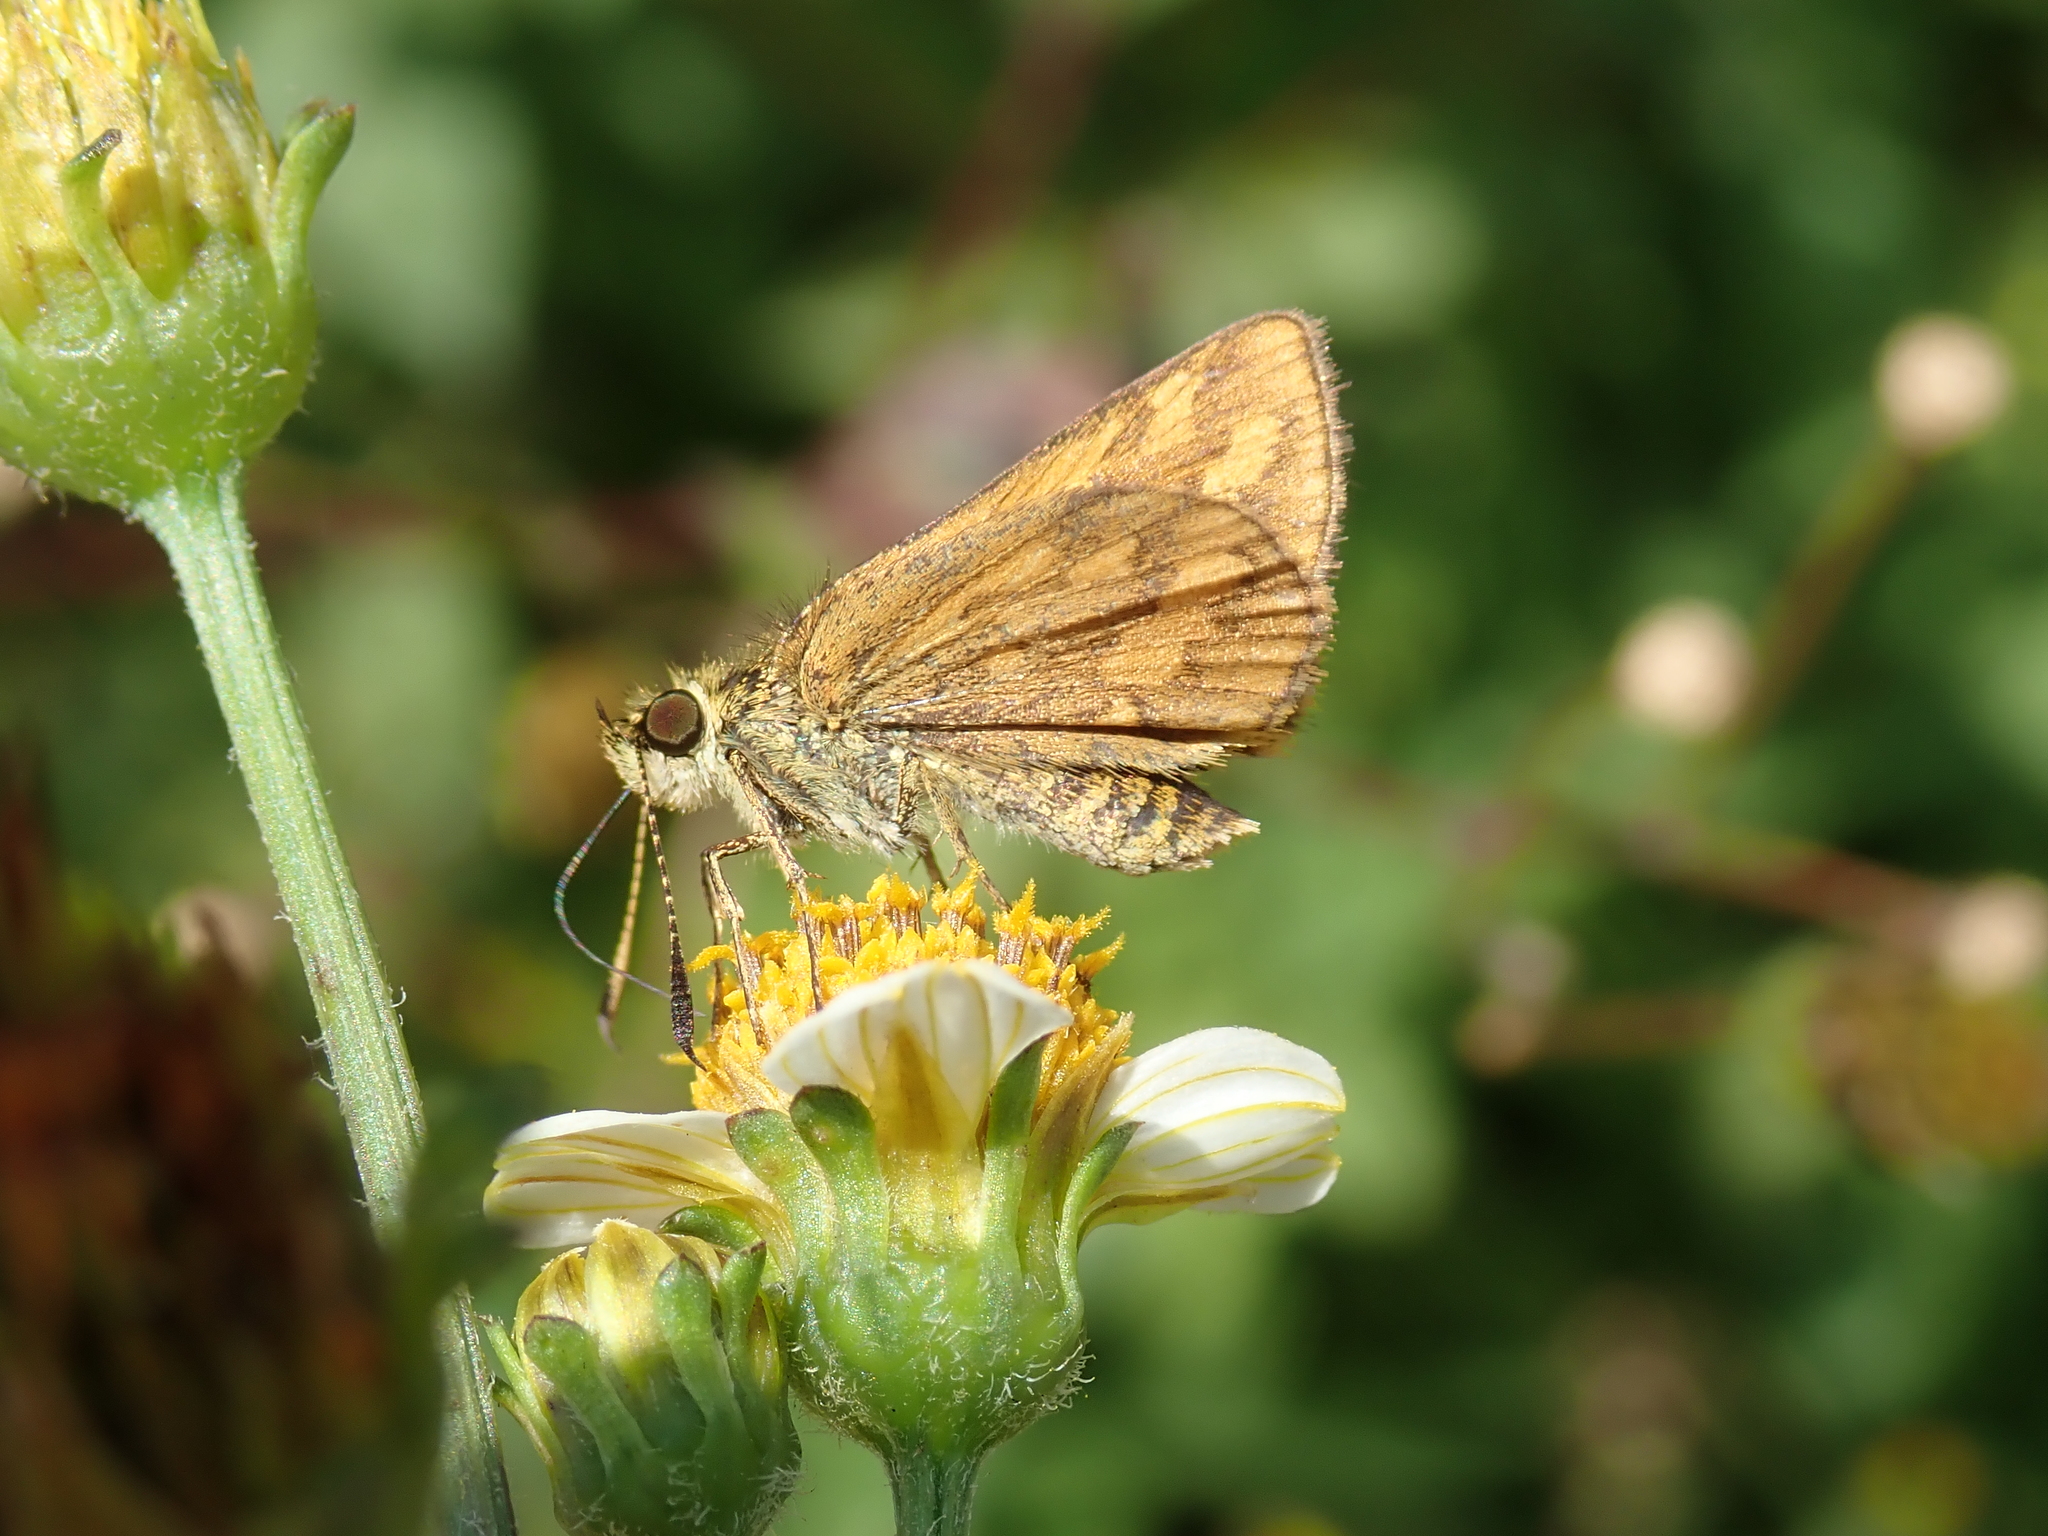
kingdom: Animalia
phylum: Arthropoda
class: Insecta
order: Lepidoptera
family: Hesperiidae
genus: Suniana
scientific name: Suniana sunias
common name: Wide-brand grass-dart
